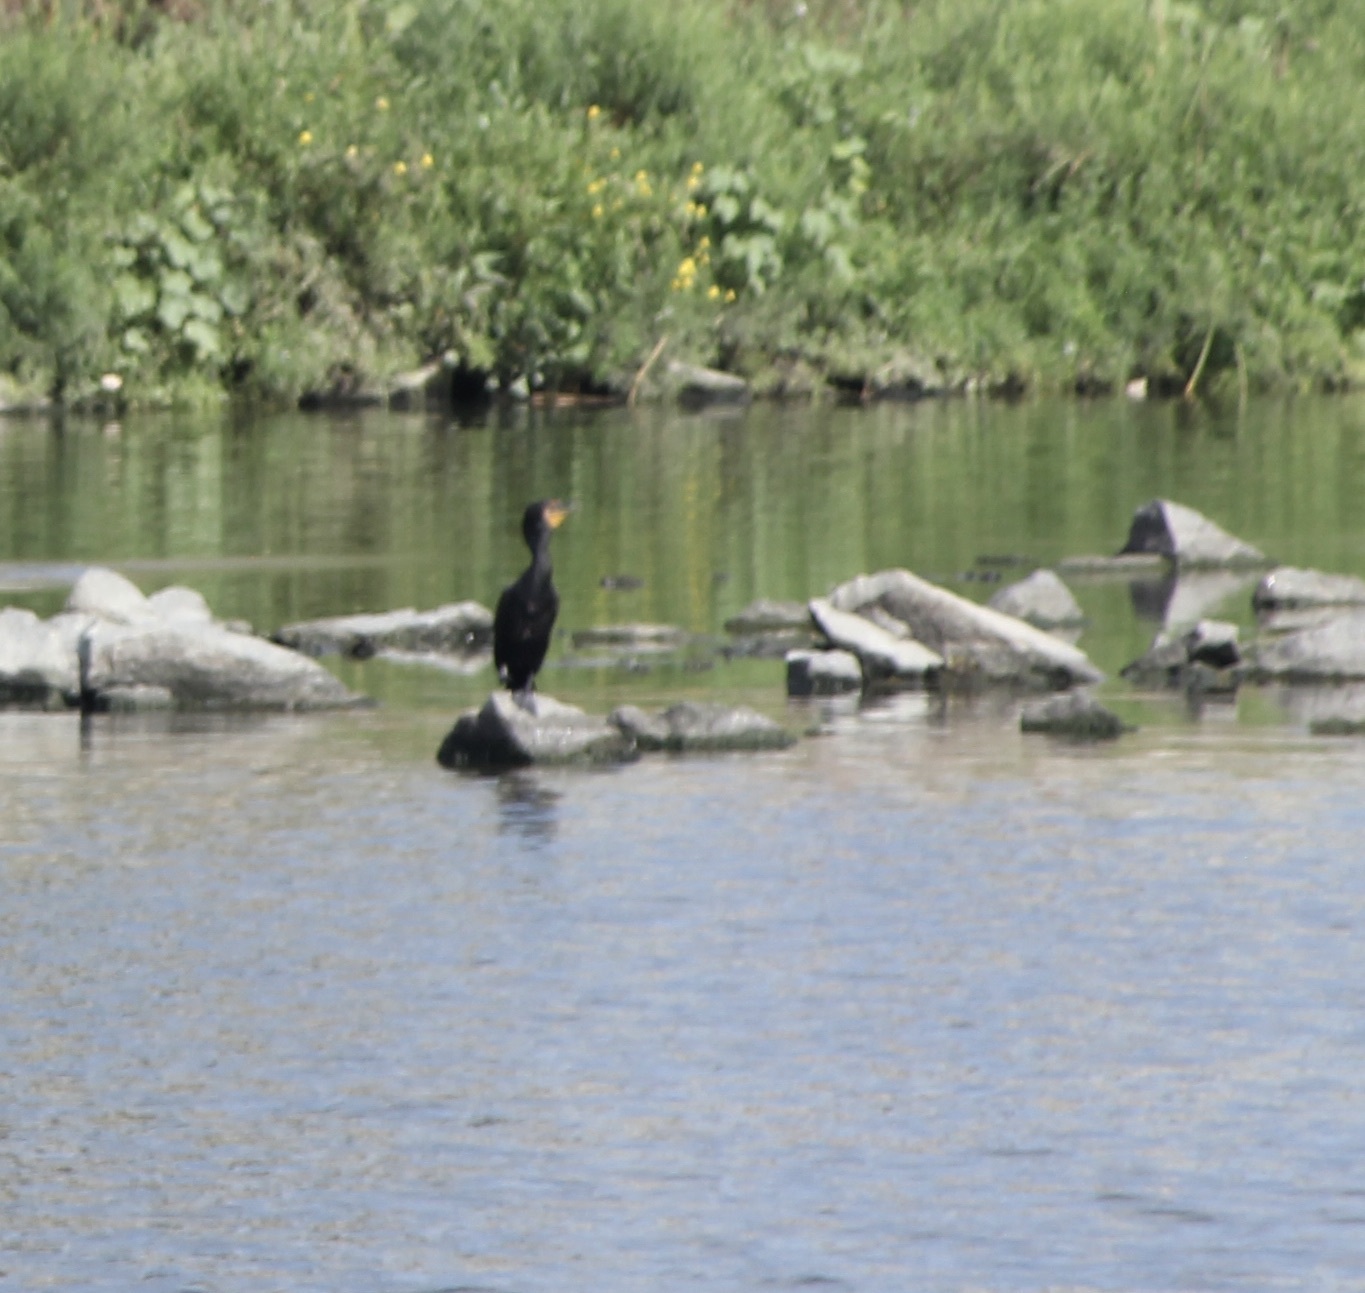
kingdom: Animalia
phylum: Chordata
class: Aves
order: Suliformes
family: Phalacrocoracidae
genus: Phalacrocorax
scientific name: Phalacrocorax auritus
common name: Double-crested cormorant
